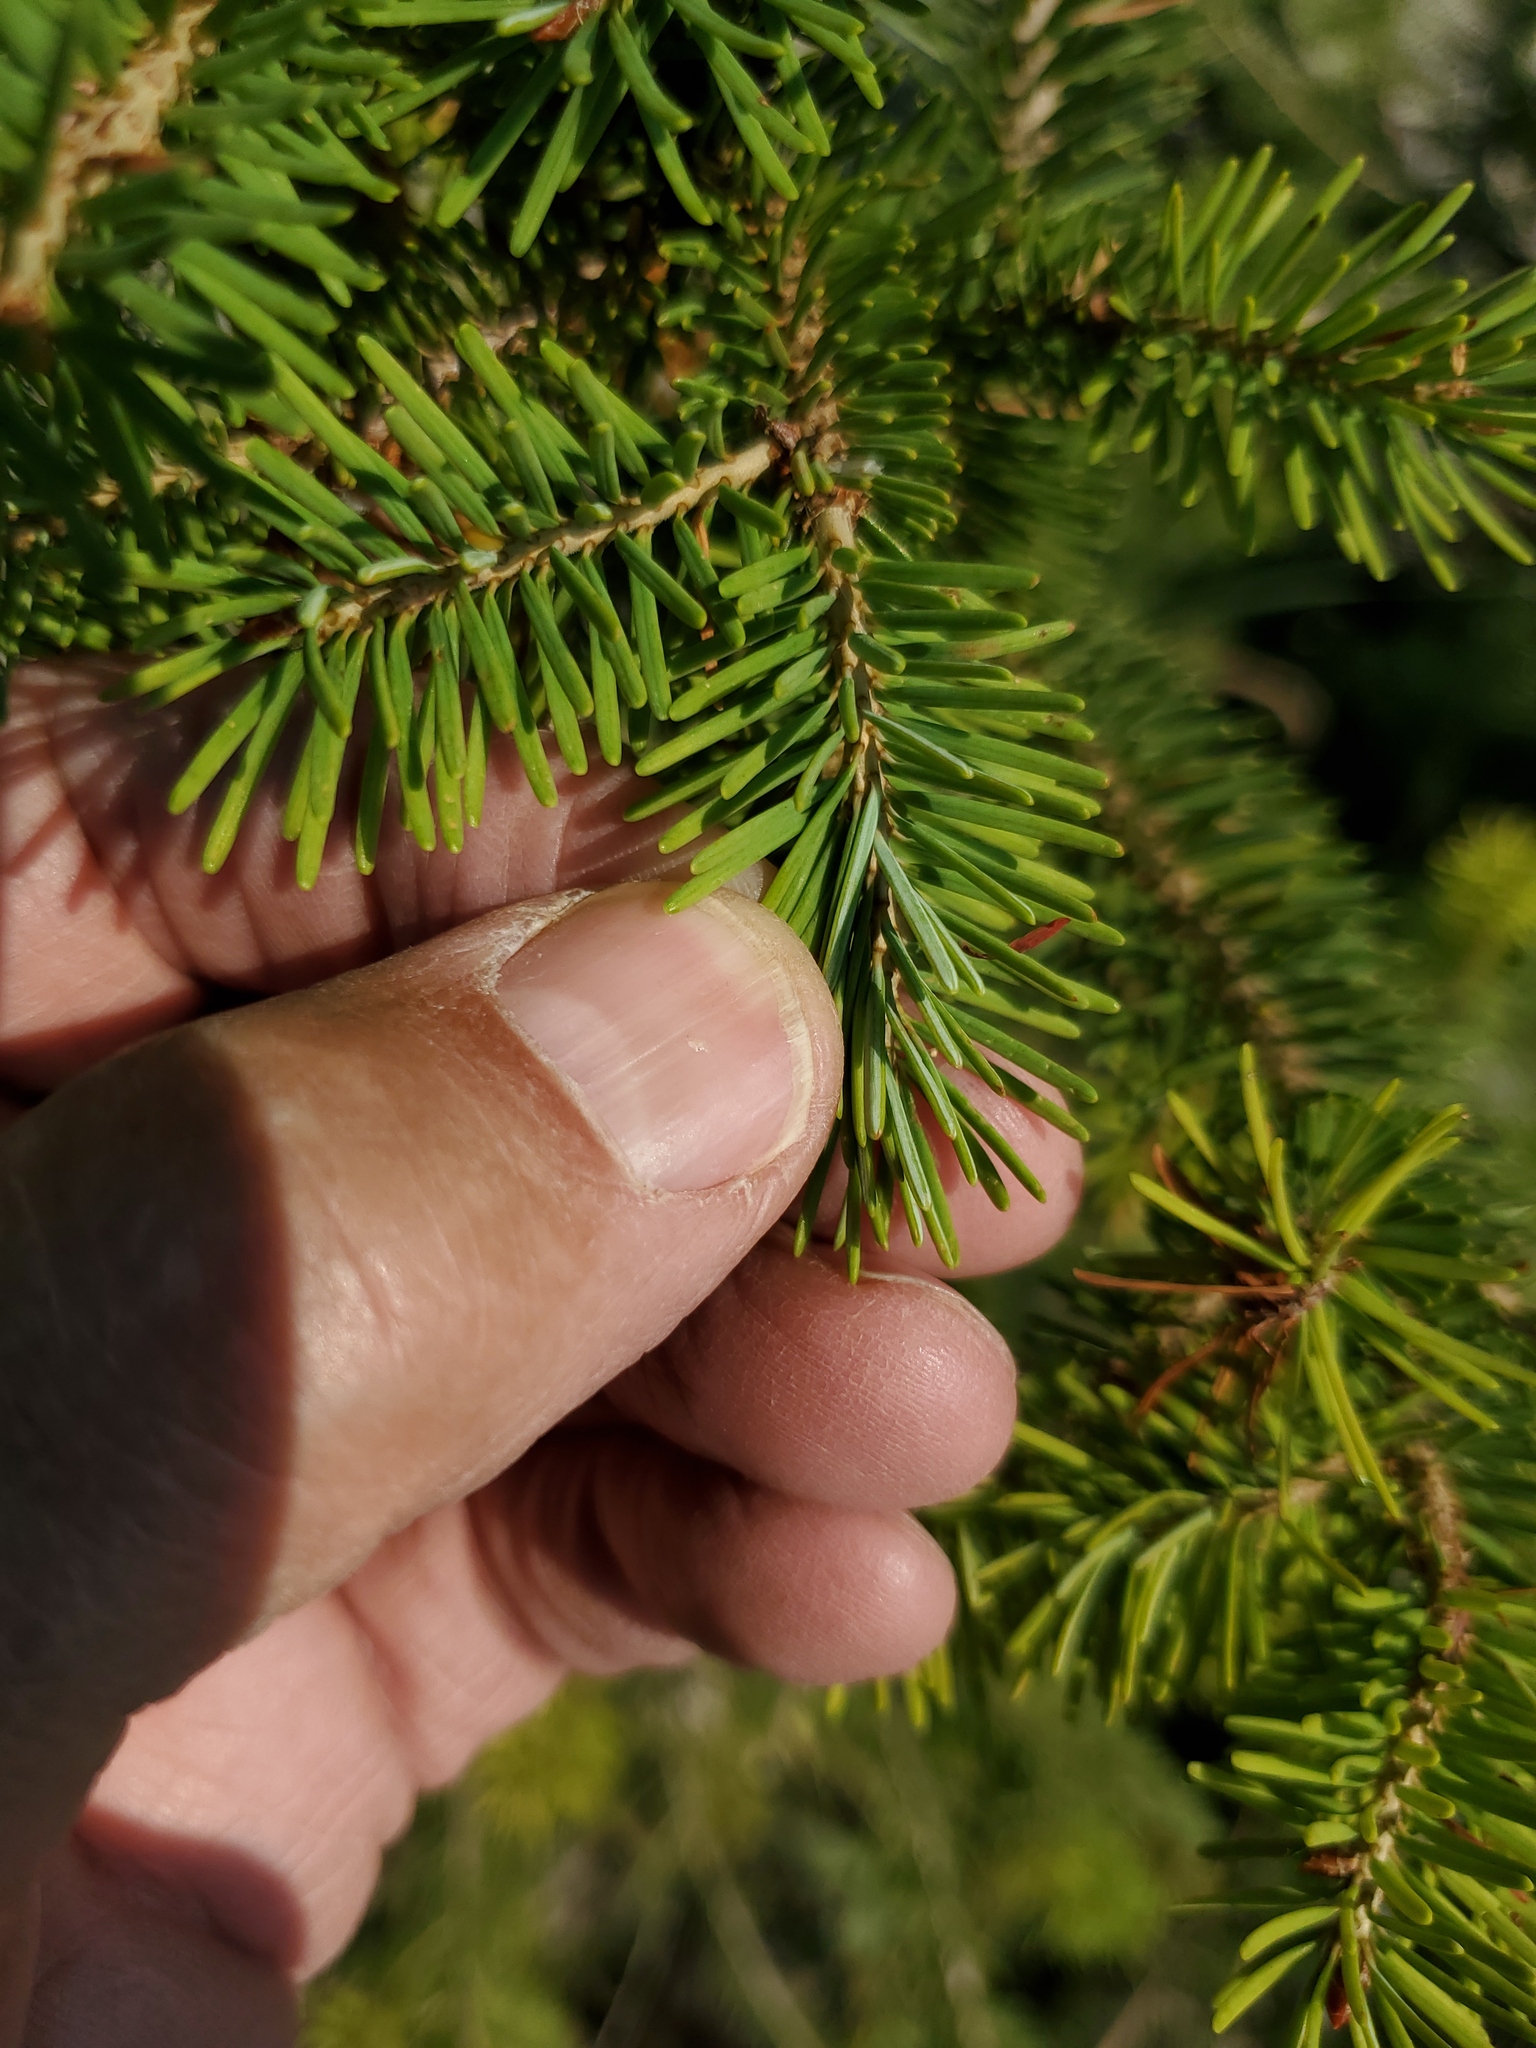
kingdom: Plantae
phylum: Tracheophyta
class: Pinopsida
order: Pinales
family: Pinaceae
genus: Pseudotsuga
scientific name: Pseudotsuga menziesii
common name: Douglas fir
